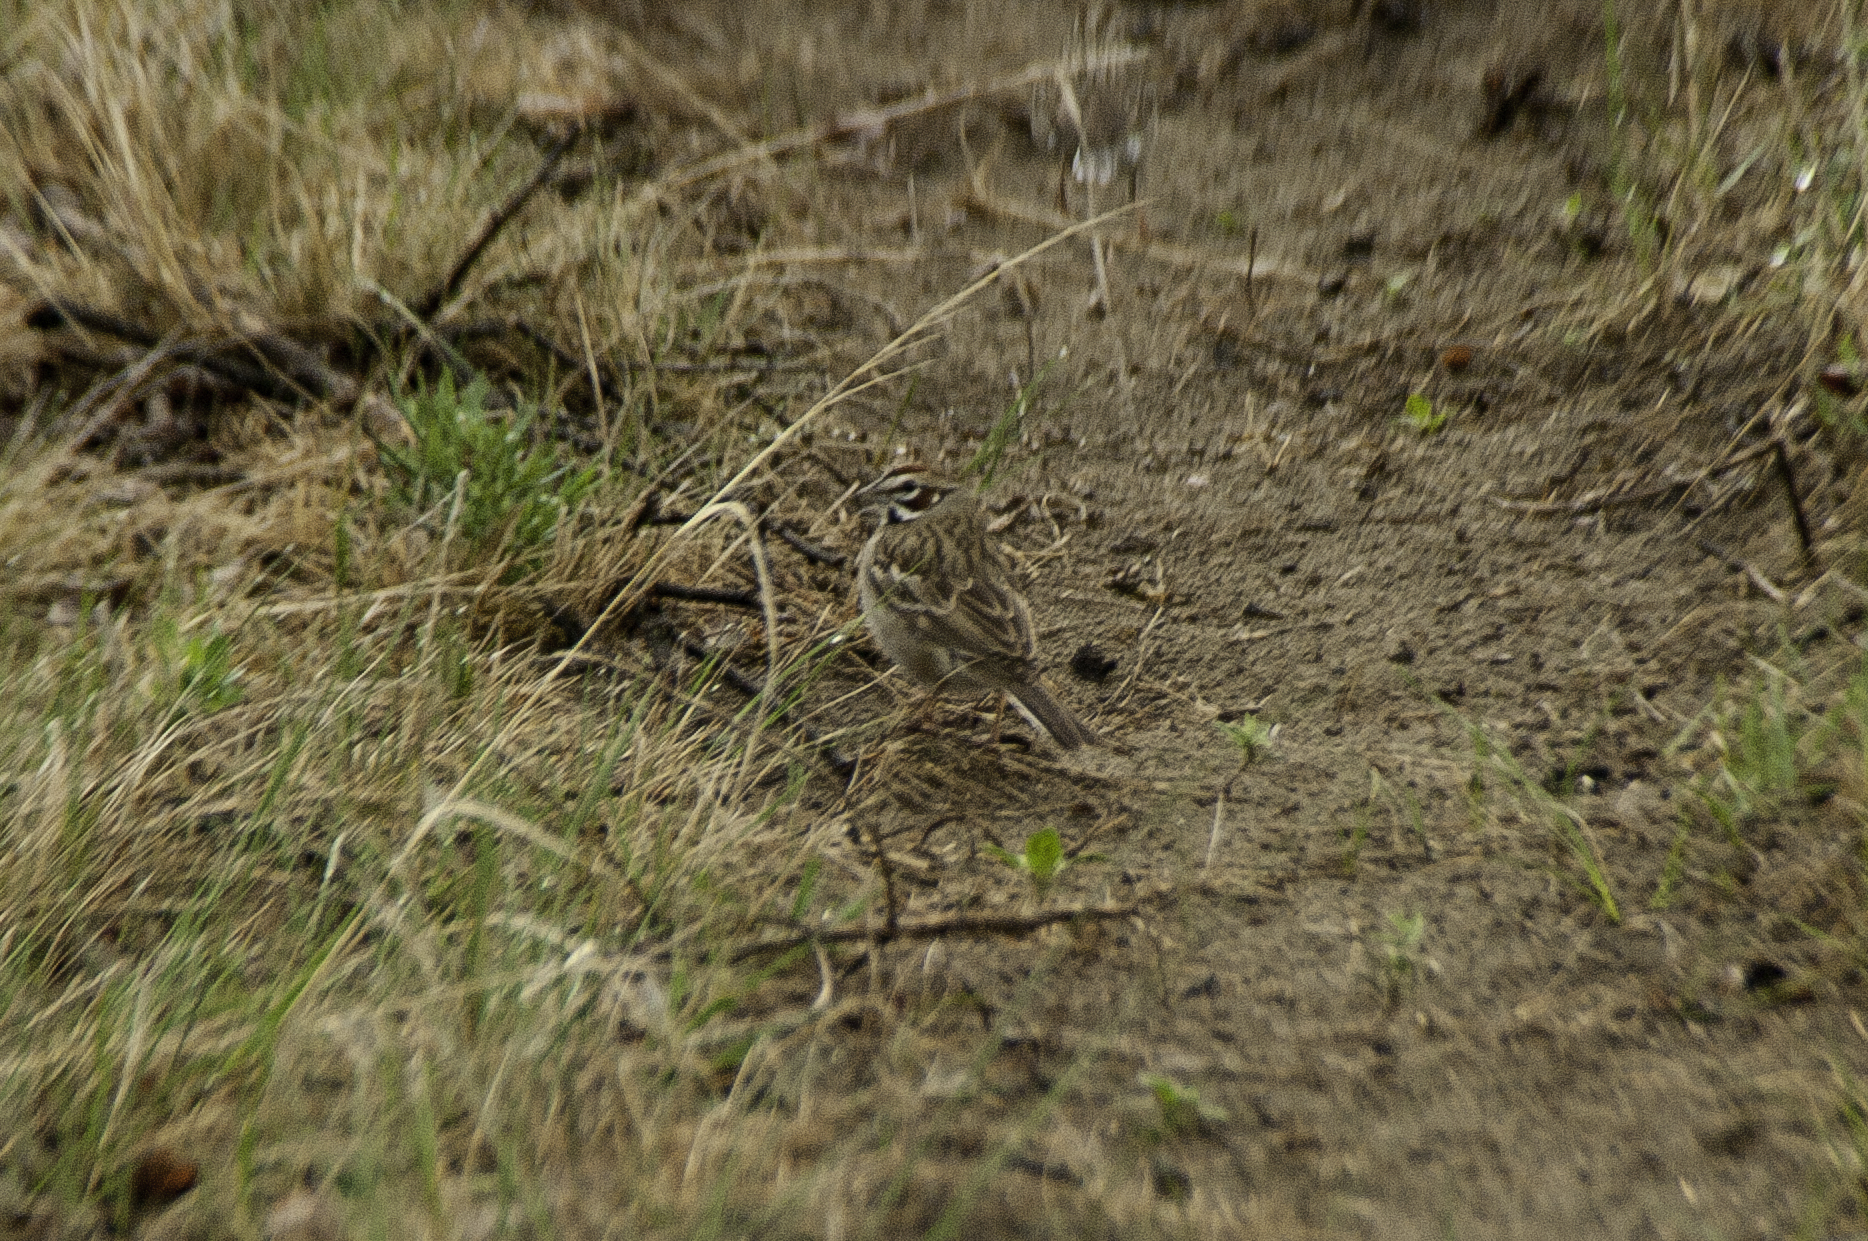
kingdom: Animalia
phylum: Chordata
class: Aves
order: Passeriformes
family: Passerellidae
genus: Chondestes
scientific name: Chondestes grammacus
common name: Lark sparrow
